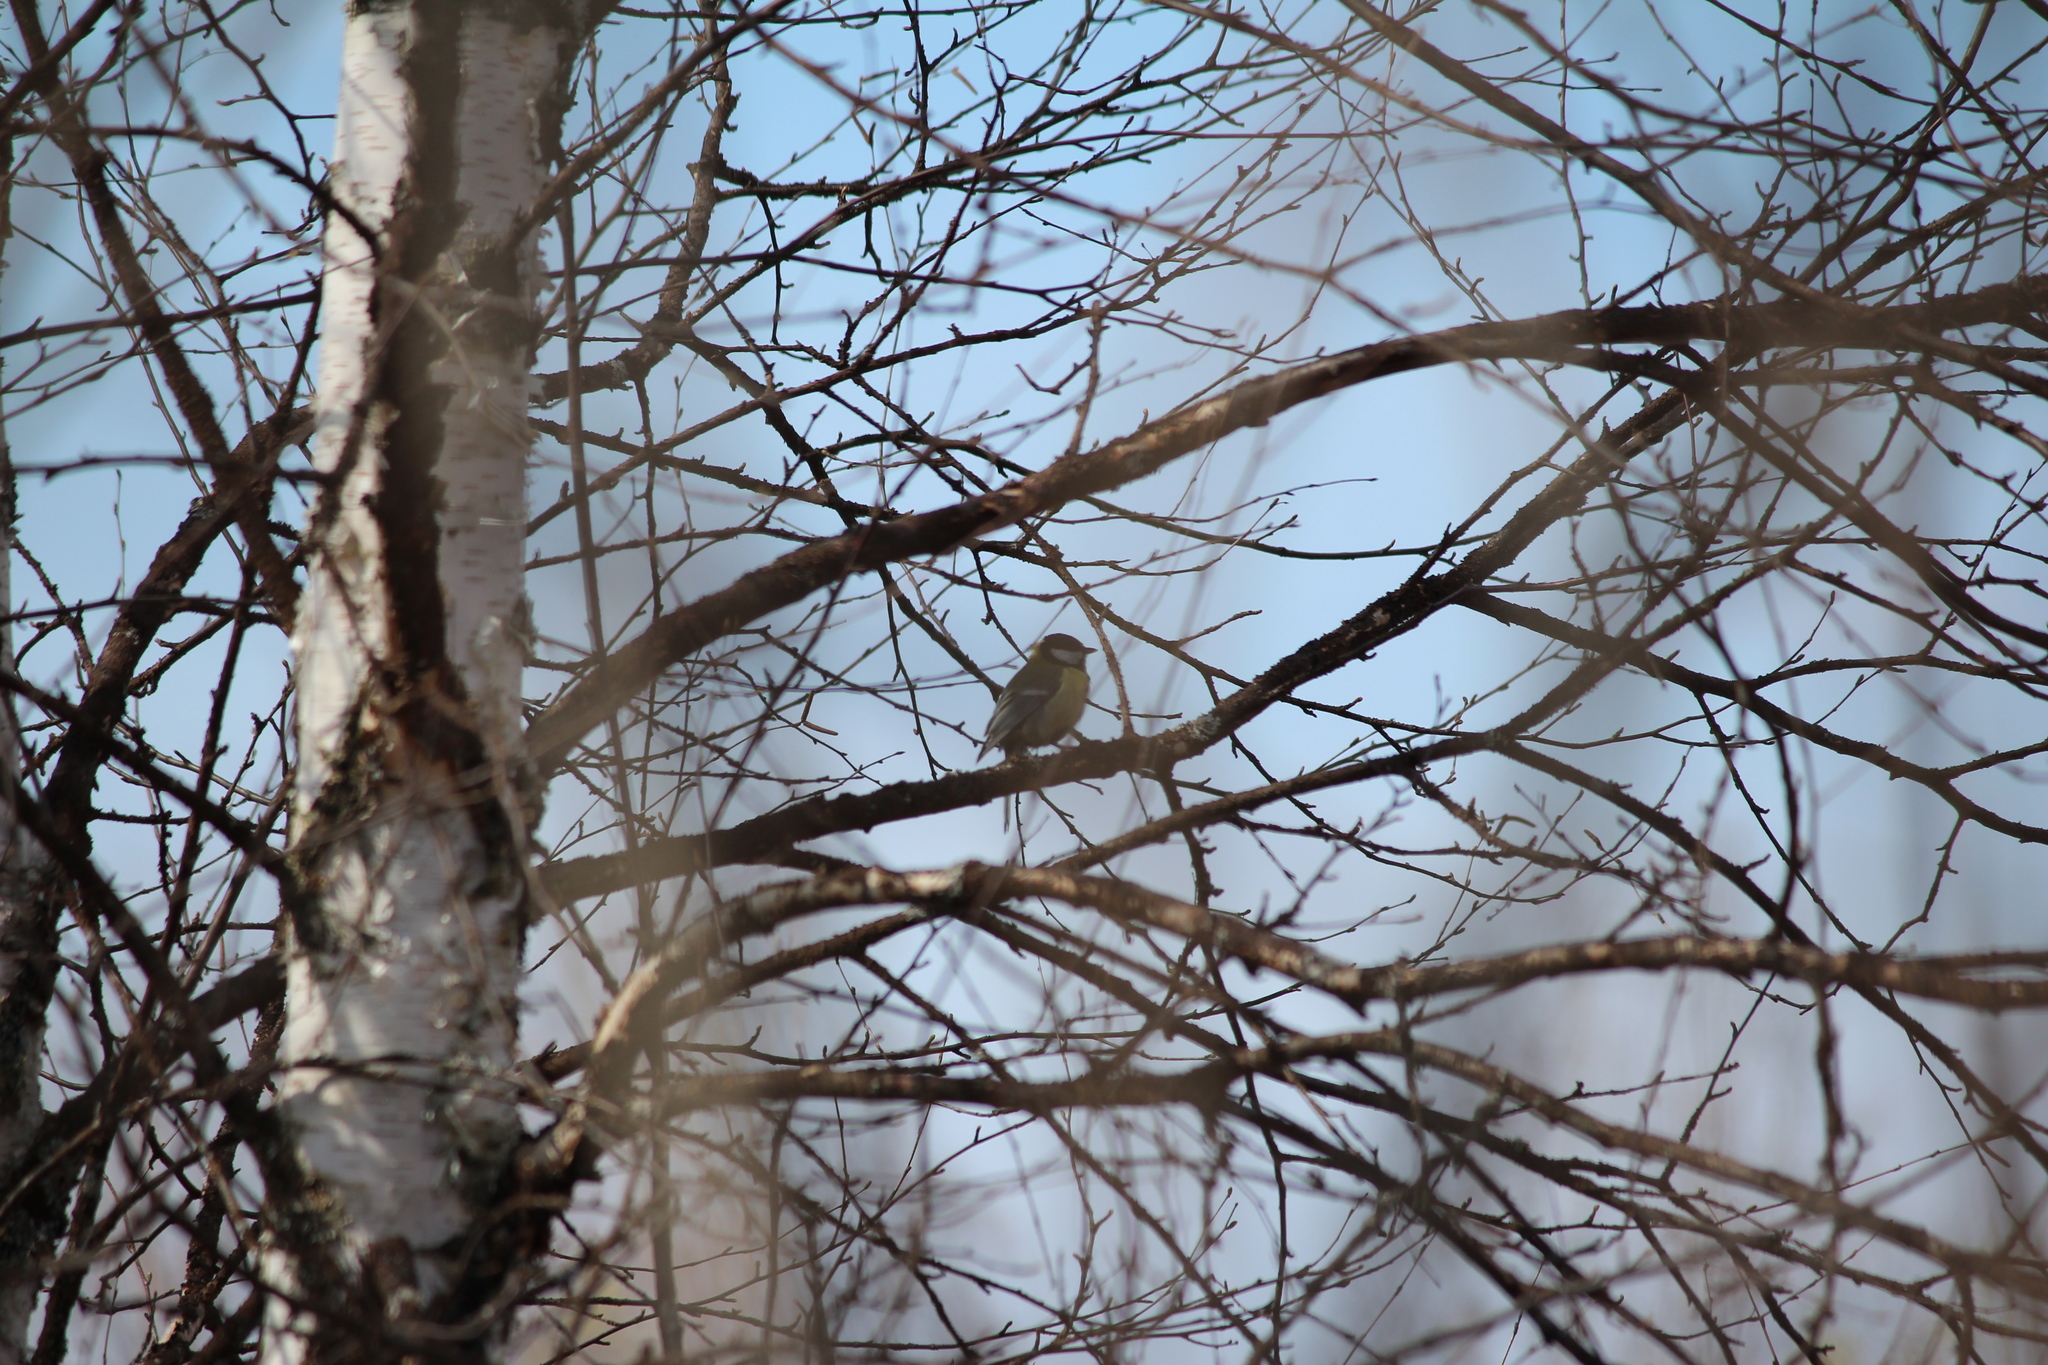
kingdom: Animalia
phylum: Chordata
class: Aves
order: Passeriformes
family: Paridae
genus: Parus
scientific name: Parus major
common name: Great tit
